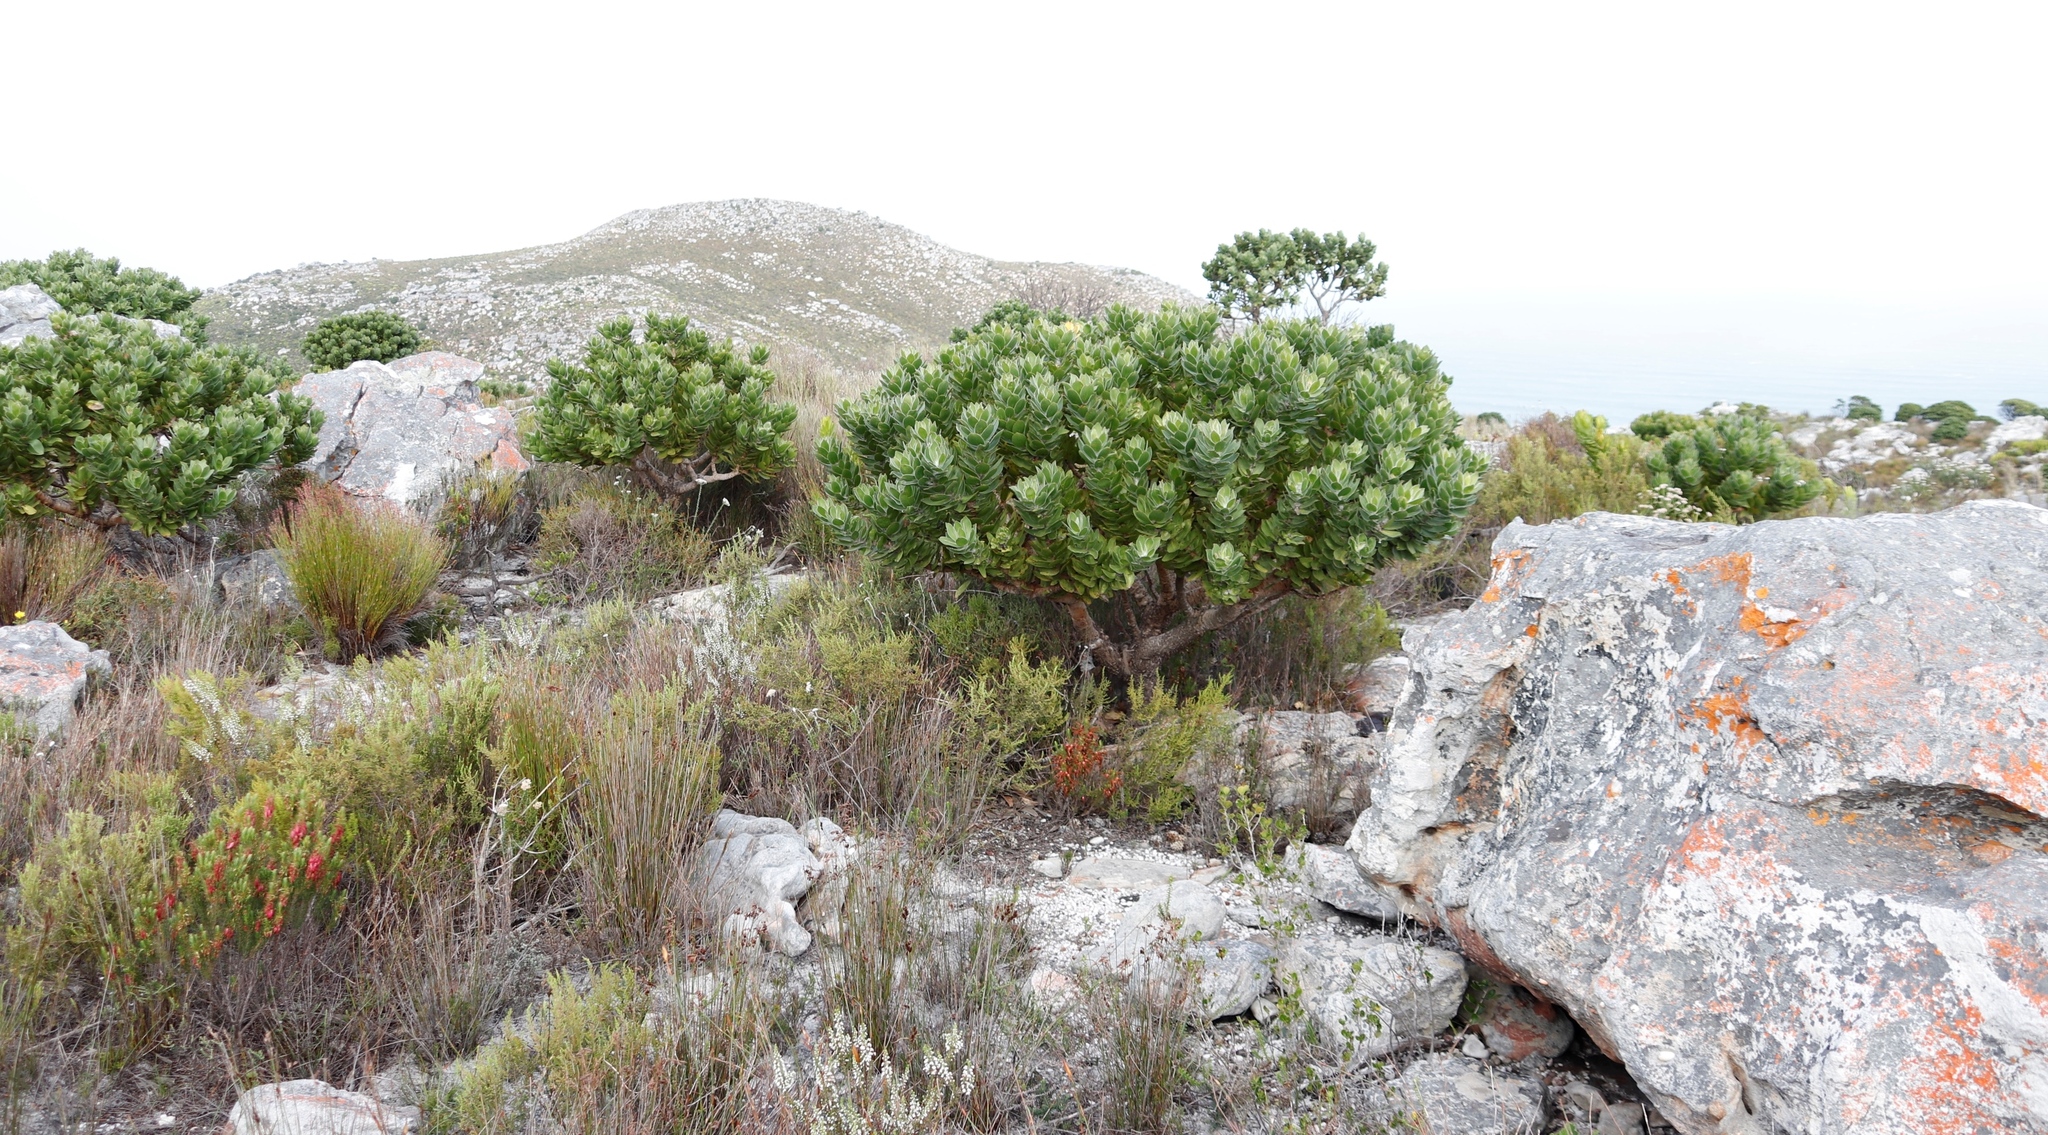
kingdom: Plantae
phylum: Tracheophyta
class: Magnoliopsida
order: Proteales
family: Proteaceae
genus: Leucospermum
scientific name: Leucospermum conocarpodendron
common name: Tree pincushion
